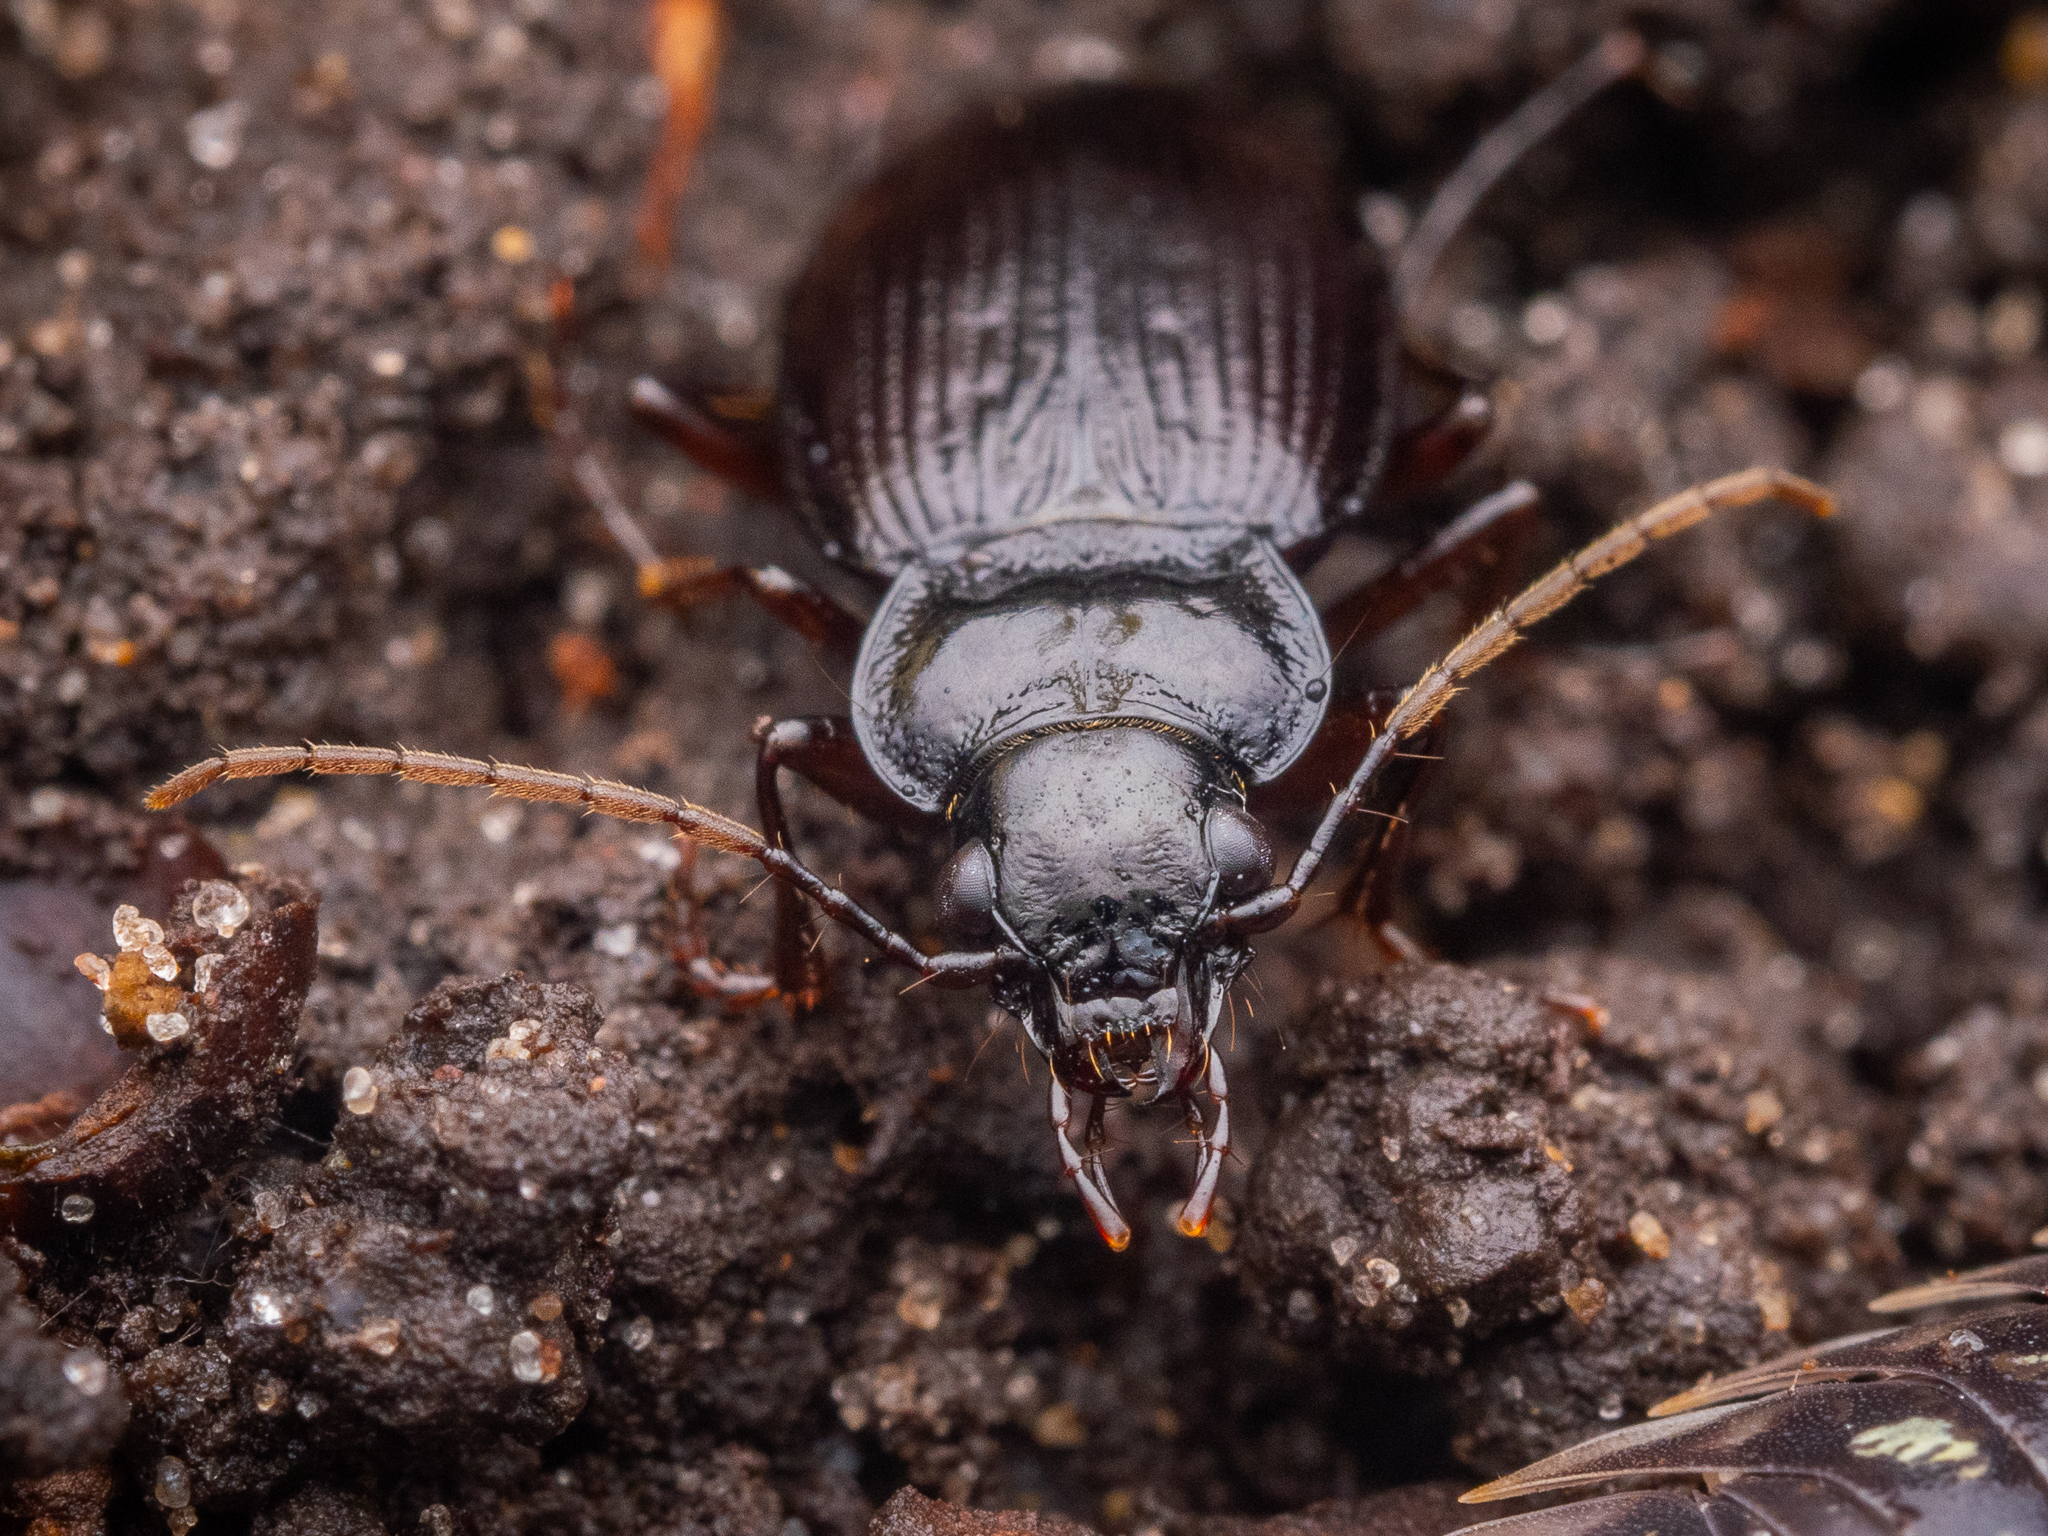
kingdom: Animalia
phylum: Arthropoda
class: Insecta
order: Coleoptera
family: Carabidae
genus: Nebria
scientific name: Nebria brevicollis
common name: Short-necked gazelle beetle
